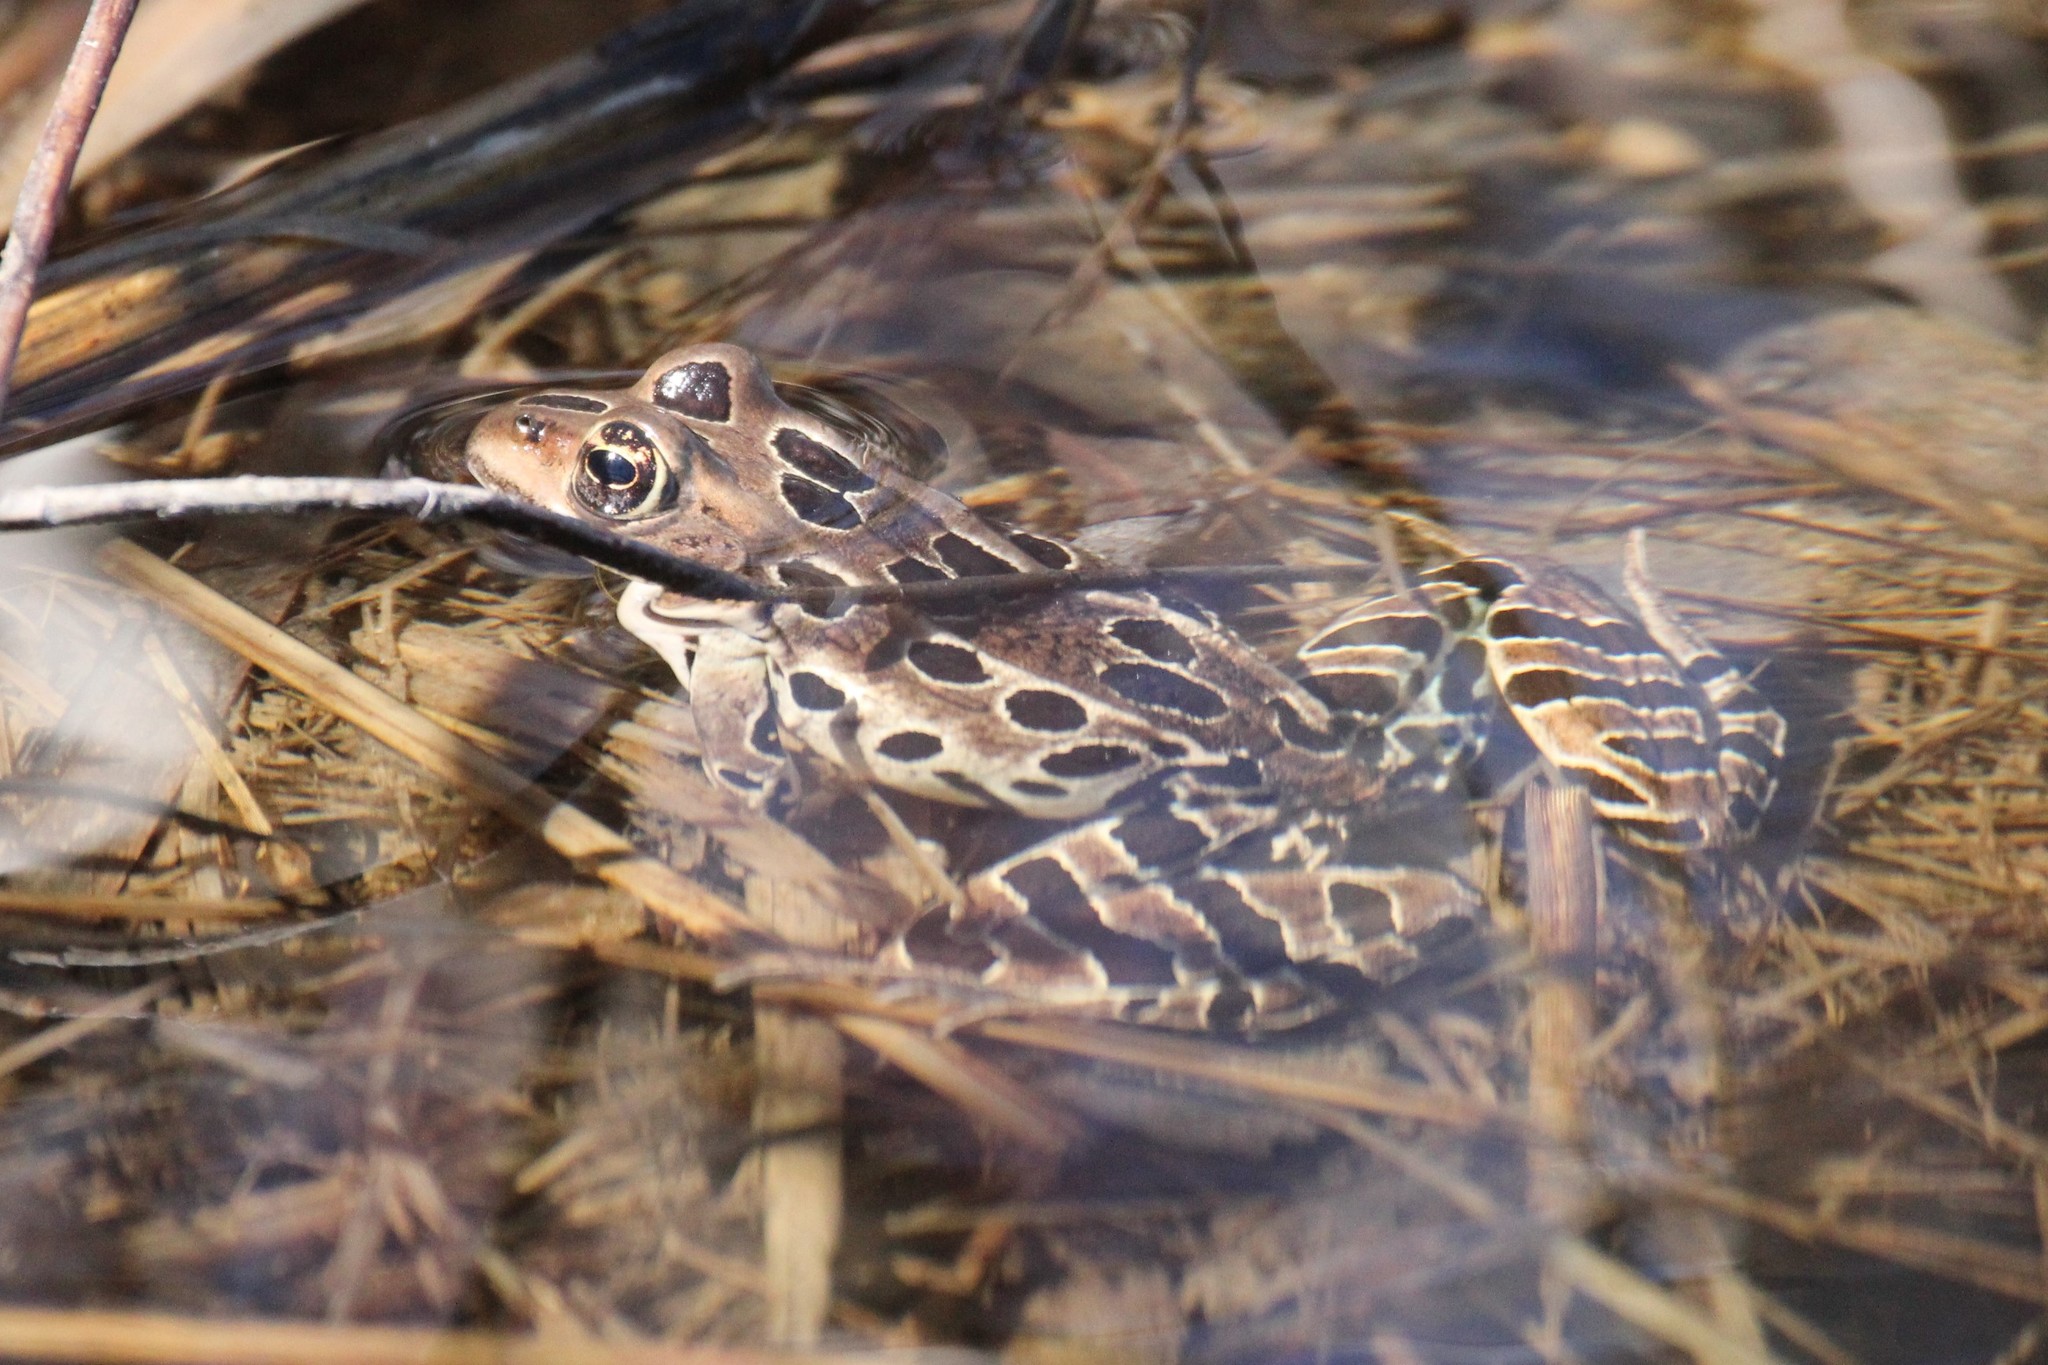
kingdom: Animalia
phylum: Chordata
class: Amphibia
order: Anura
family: Ranidae
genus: Lithobates
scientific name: Lithobates pipiens
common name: Northern leopard frog
